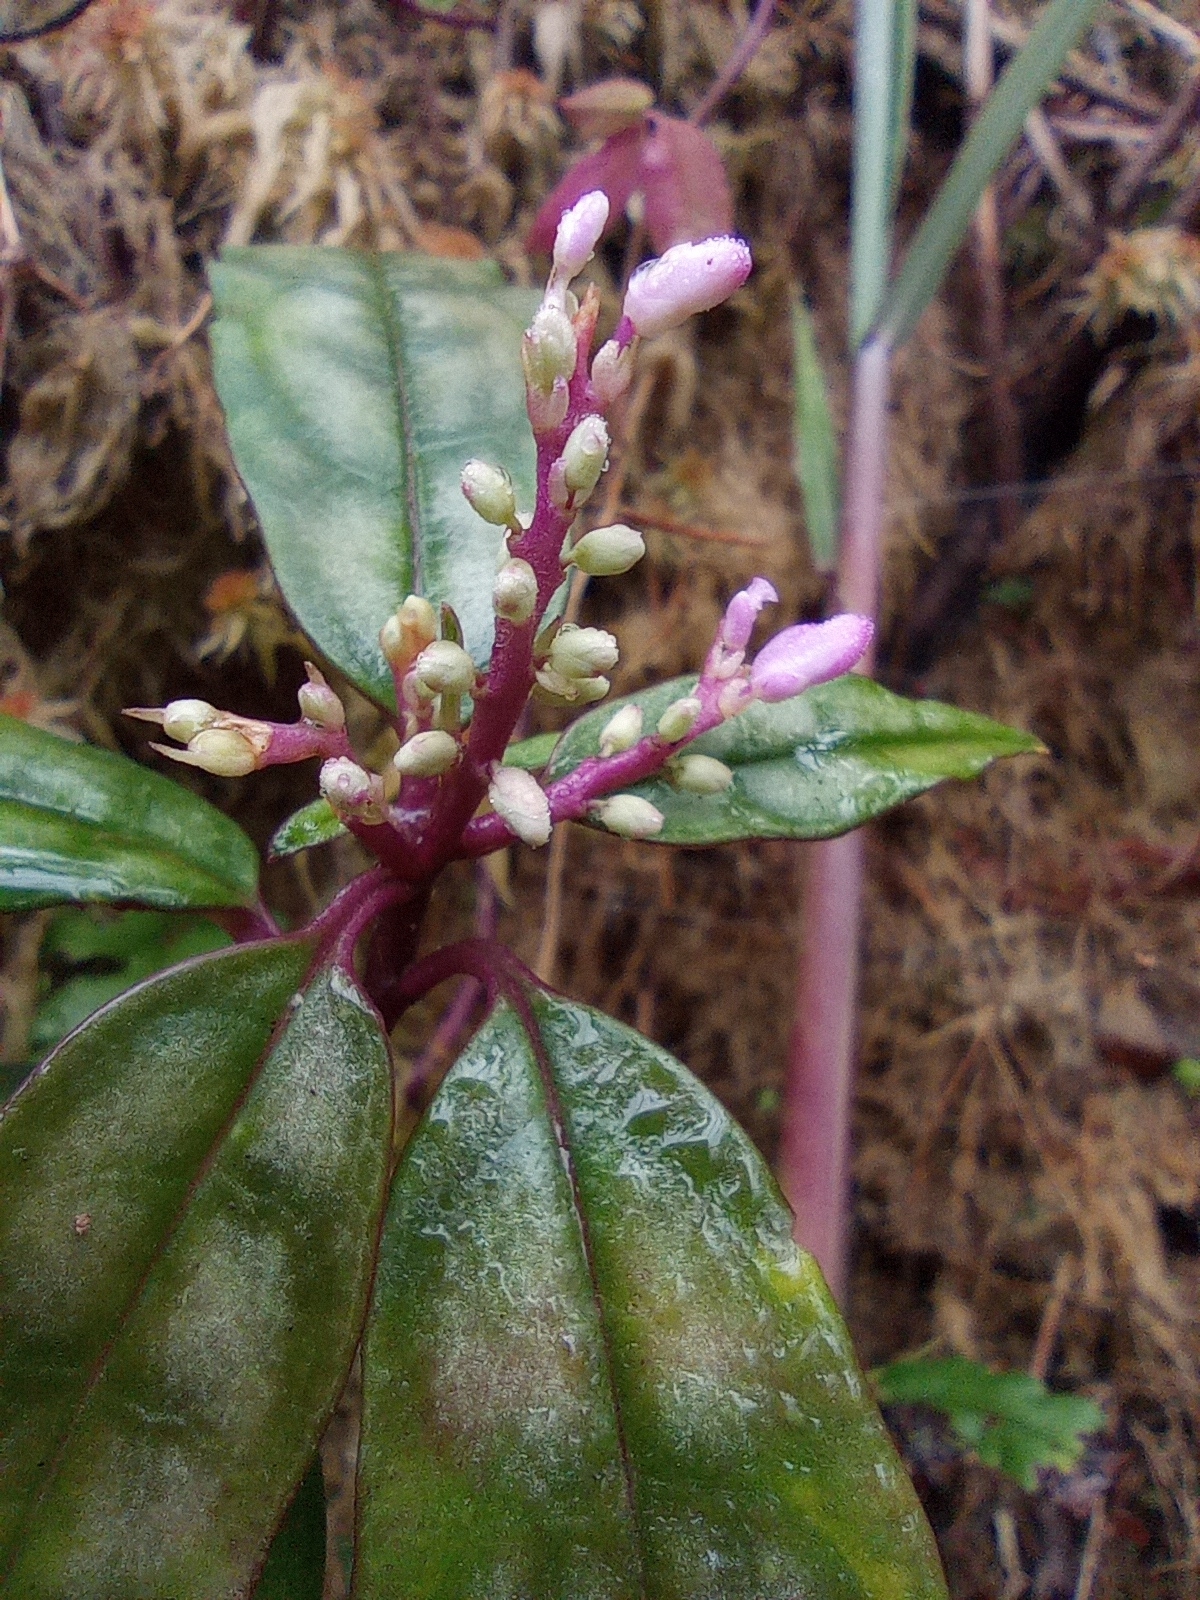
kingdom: Plantae
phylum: Tracheophyta
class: Magnoliopsida
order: Fabales
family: Polygalaceae
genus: Polygala
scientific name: Polygala arcuata
